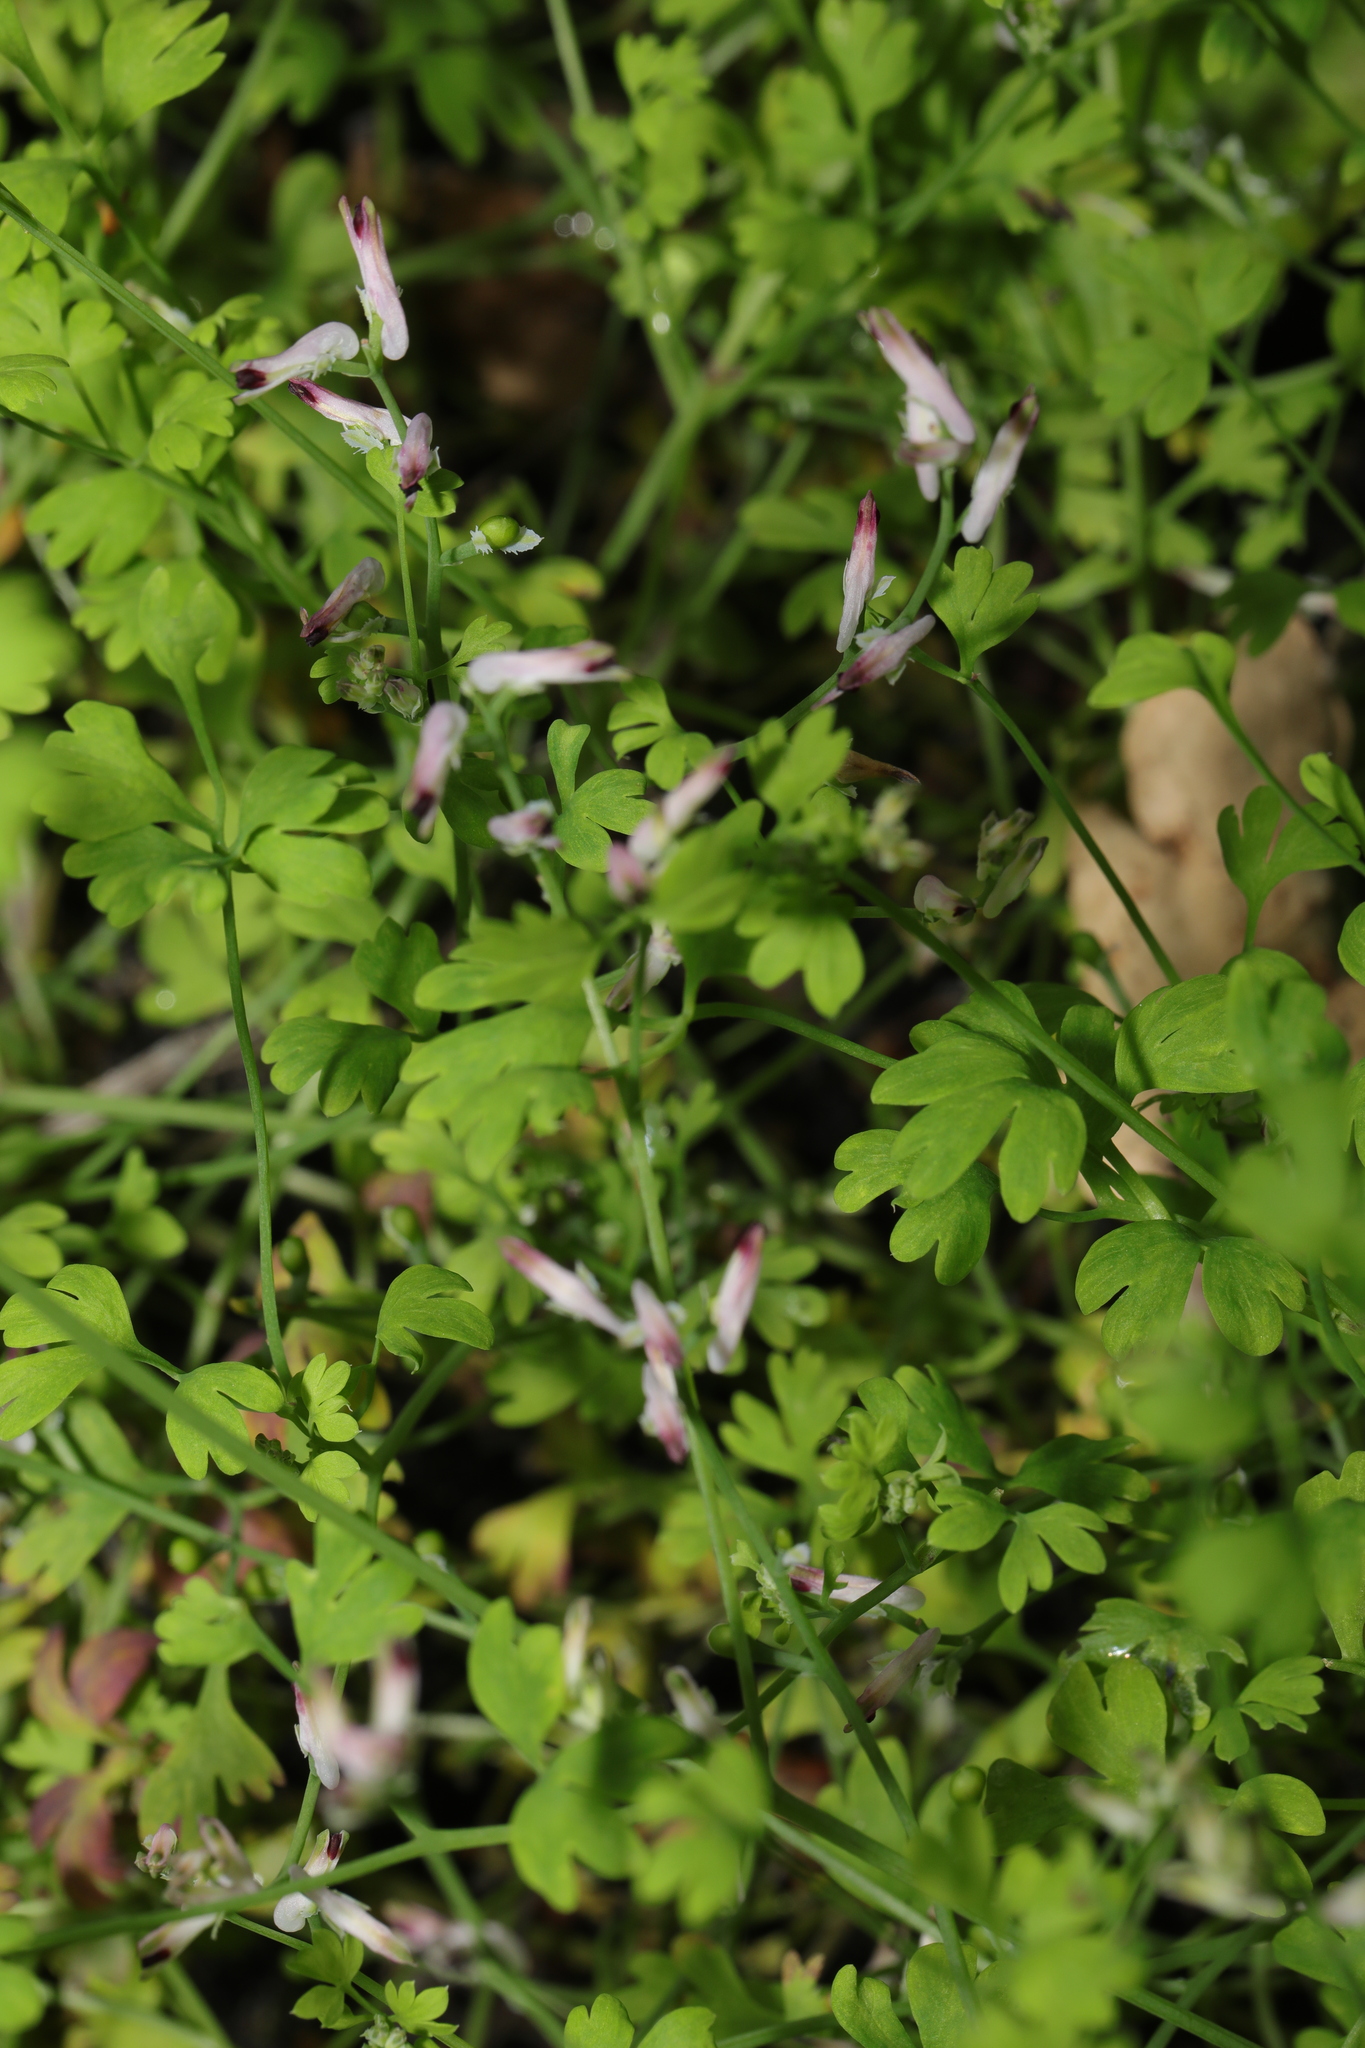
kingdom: Plantae
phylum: Tracheophyta
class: Magnoliopsida
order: Ranunculales
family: Papaveraceae
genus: Fumaria
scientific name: Fumaria muralis
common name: Common ramping-fumitory
